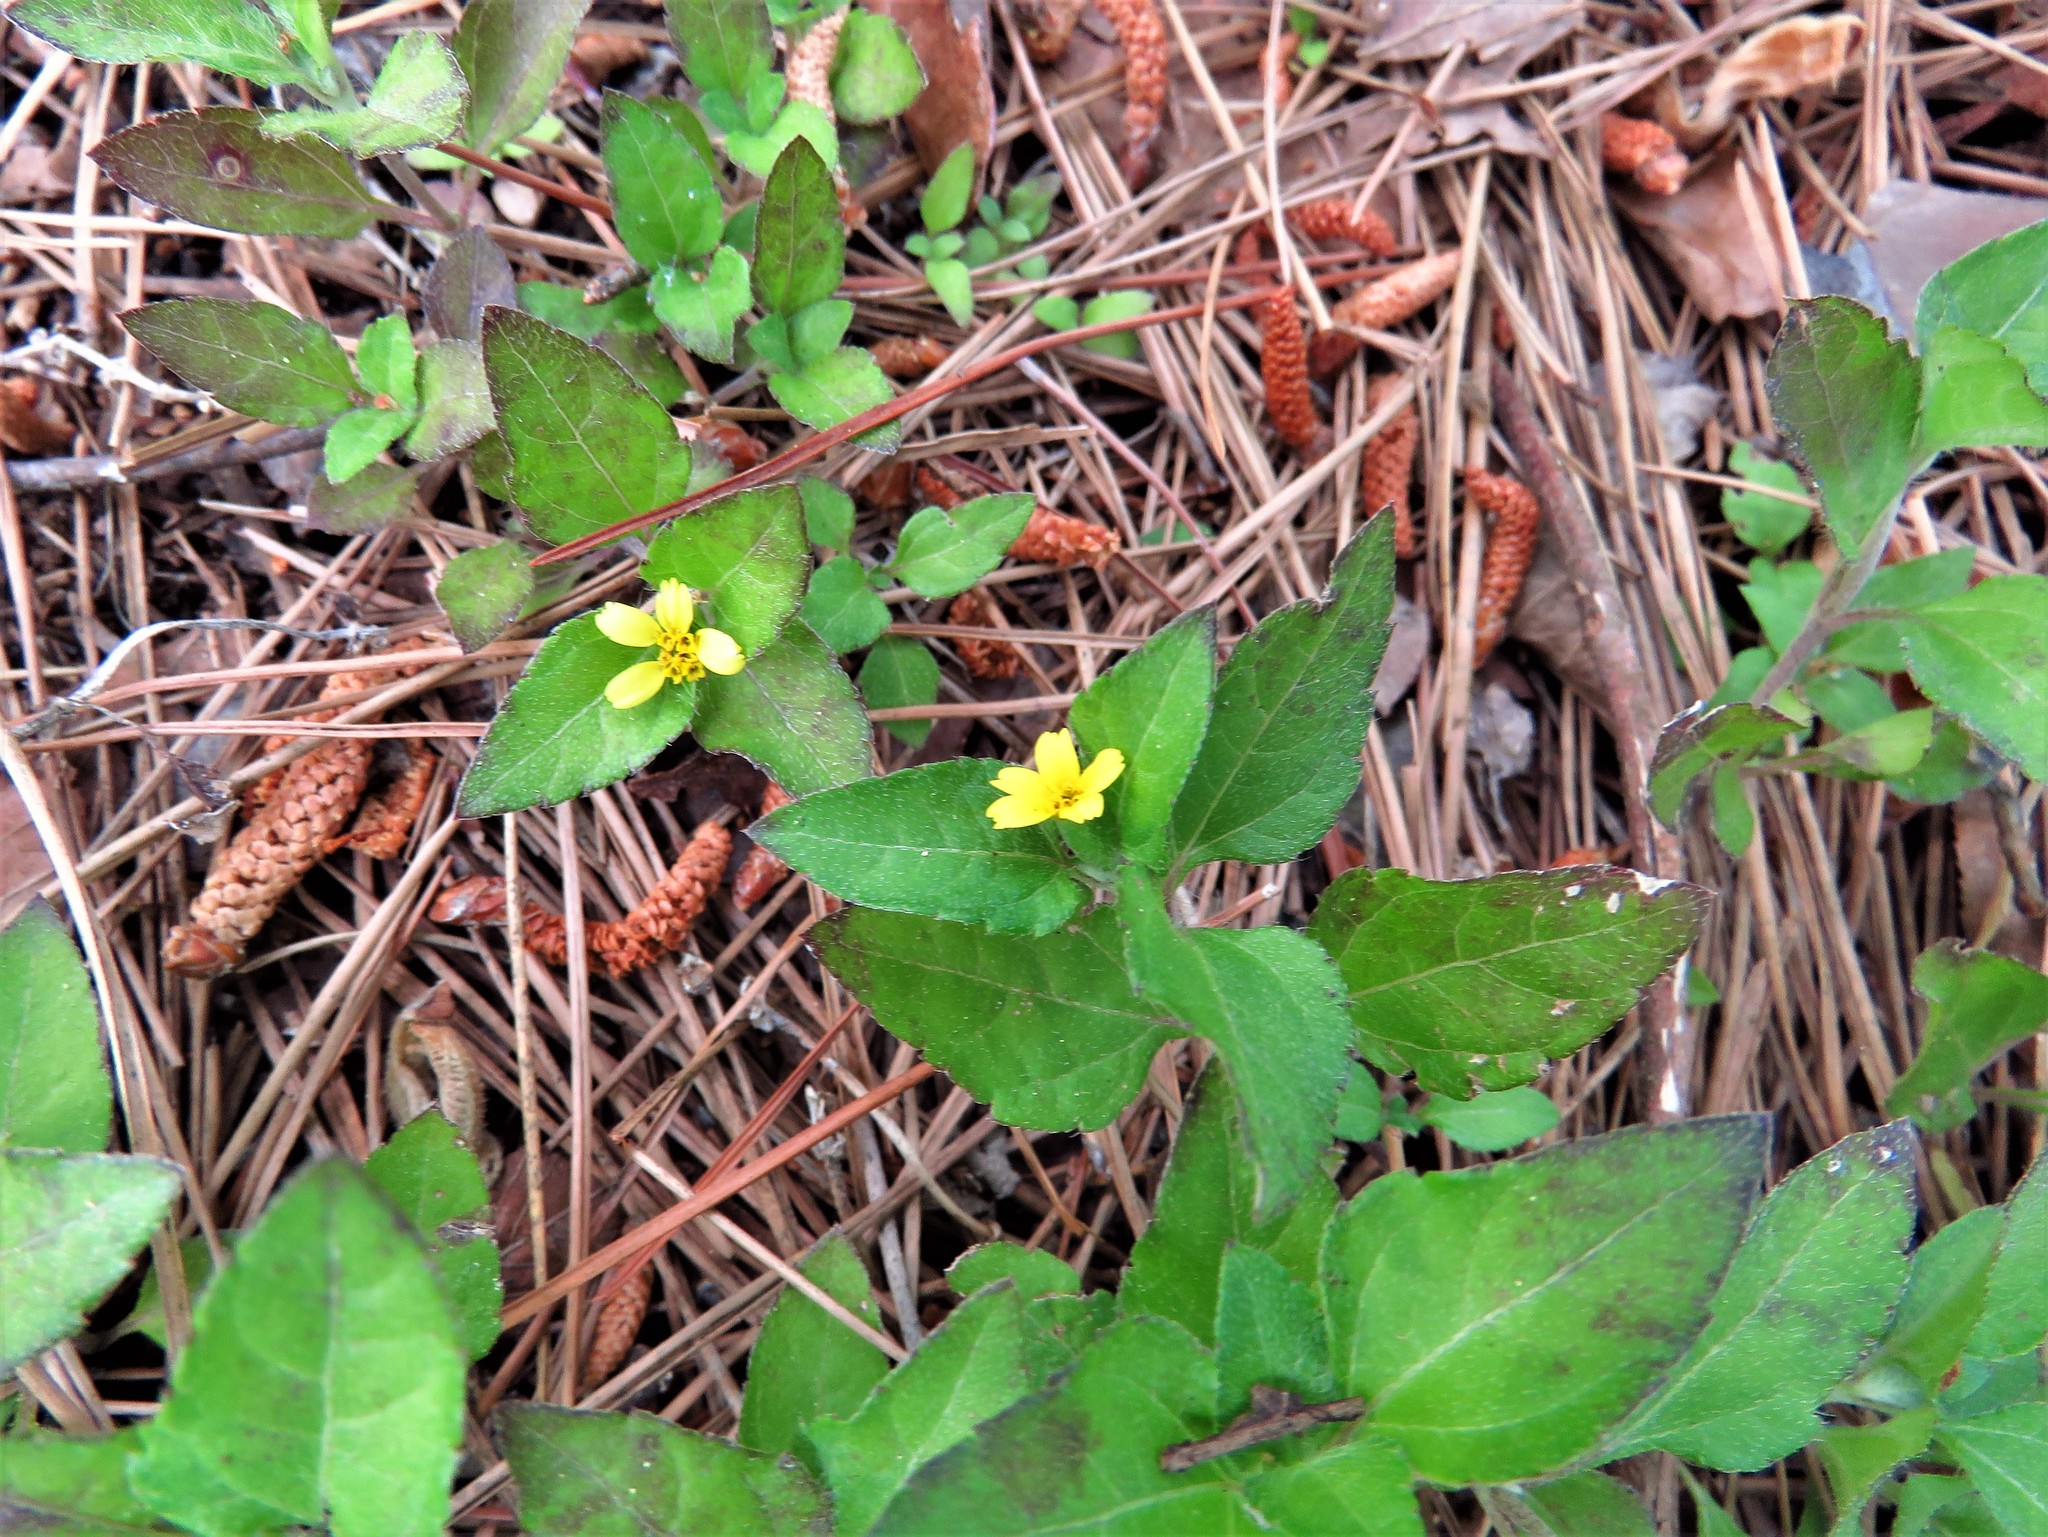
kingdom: Plantae
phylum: Tracheophyta
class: Magnoliopsida
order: Asterales
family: Asteraceae
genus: Calyptocarpus
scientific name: Calyptocarpus vialis
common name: Straggler daisy
